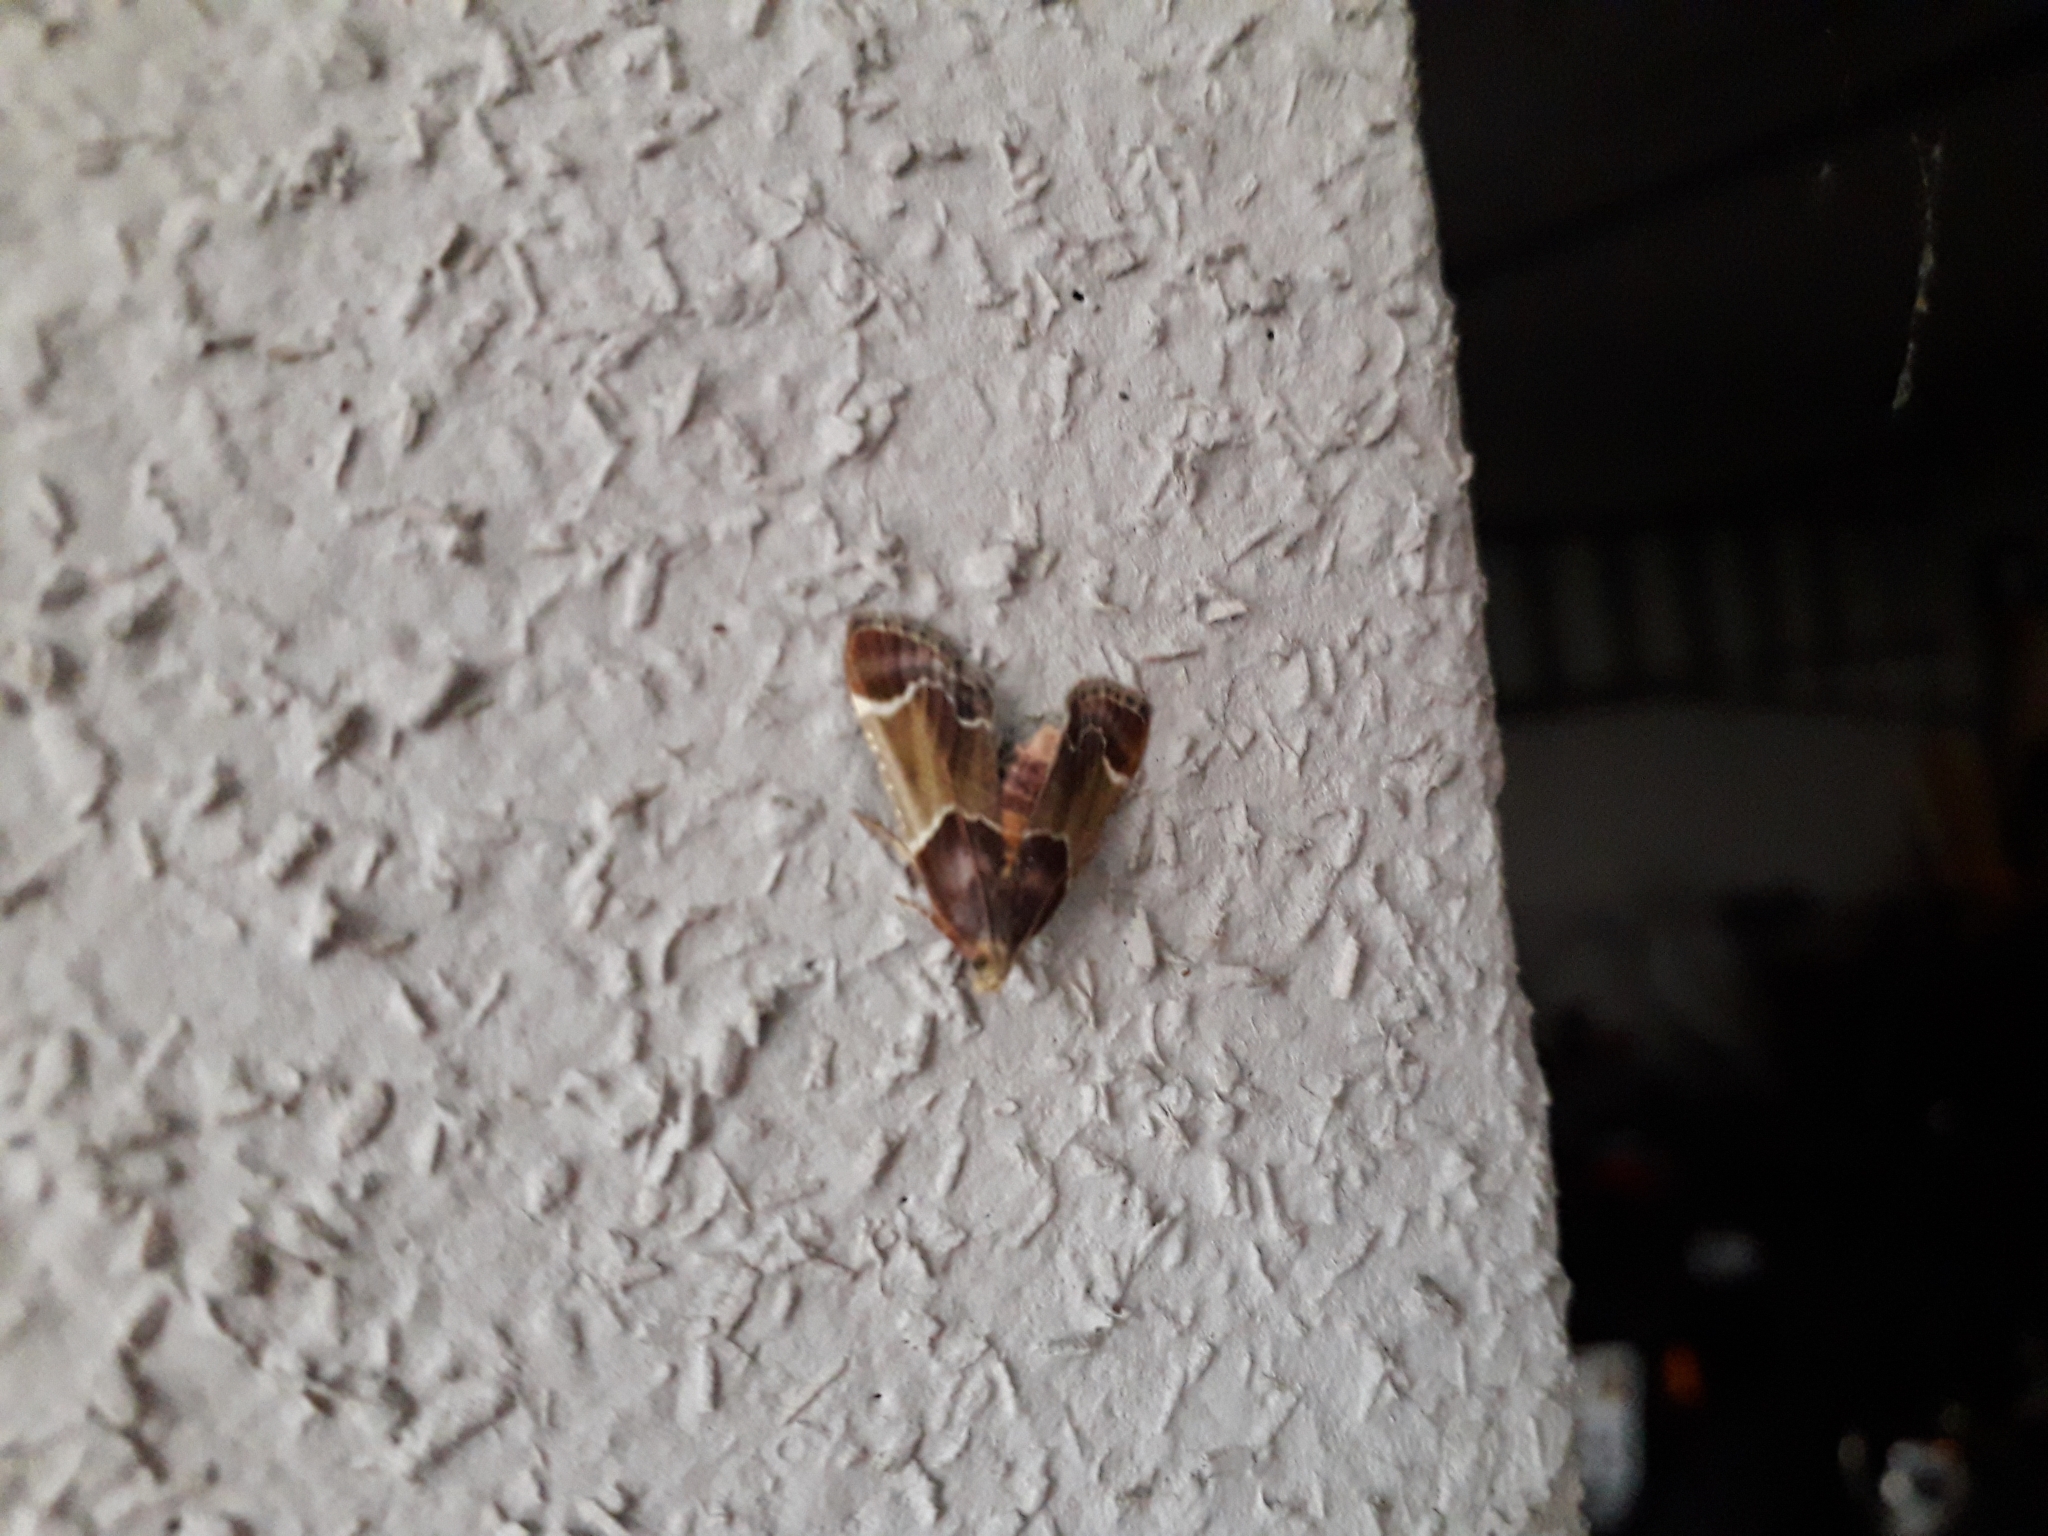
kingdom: Animalia
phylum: Arthropoda
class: Insecta
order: Lepidoptera
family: Pyralidae
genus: Pyralis
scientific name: Pyralis farinalis
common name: Meal moth
